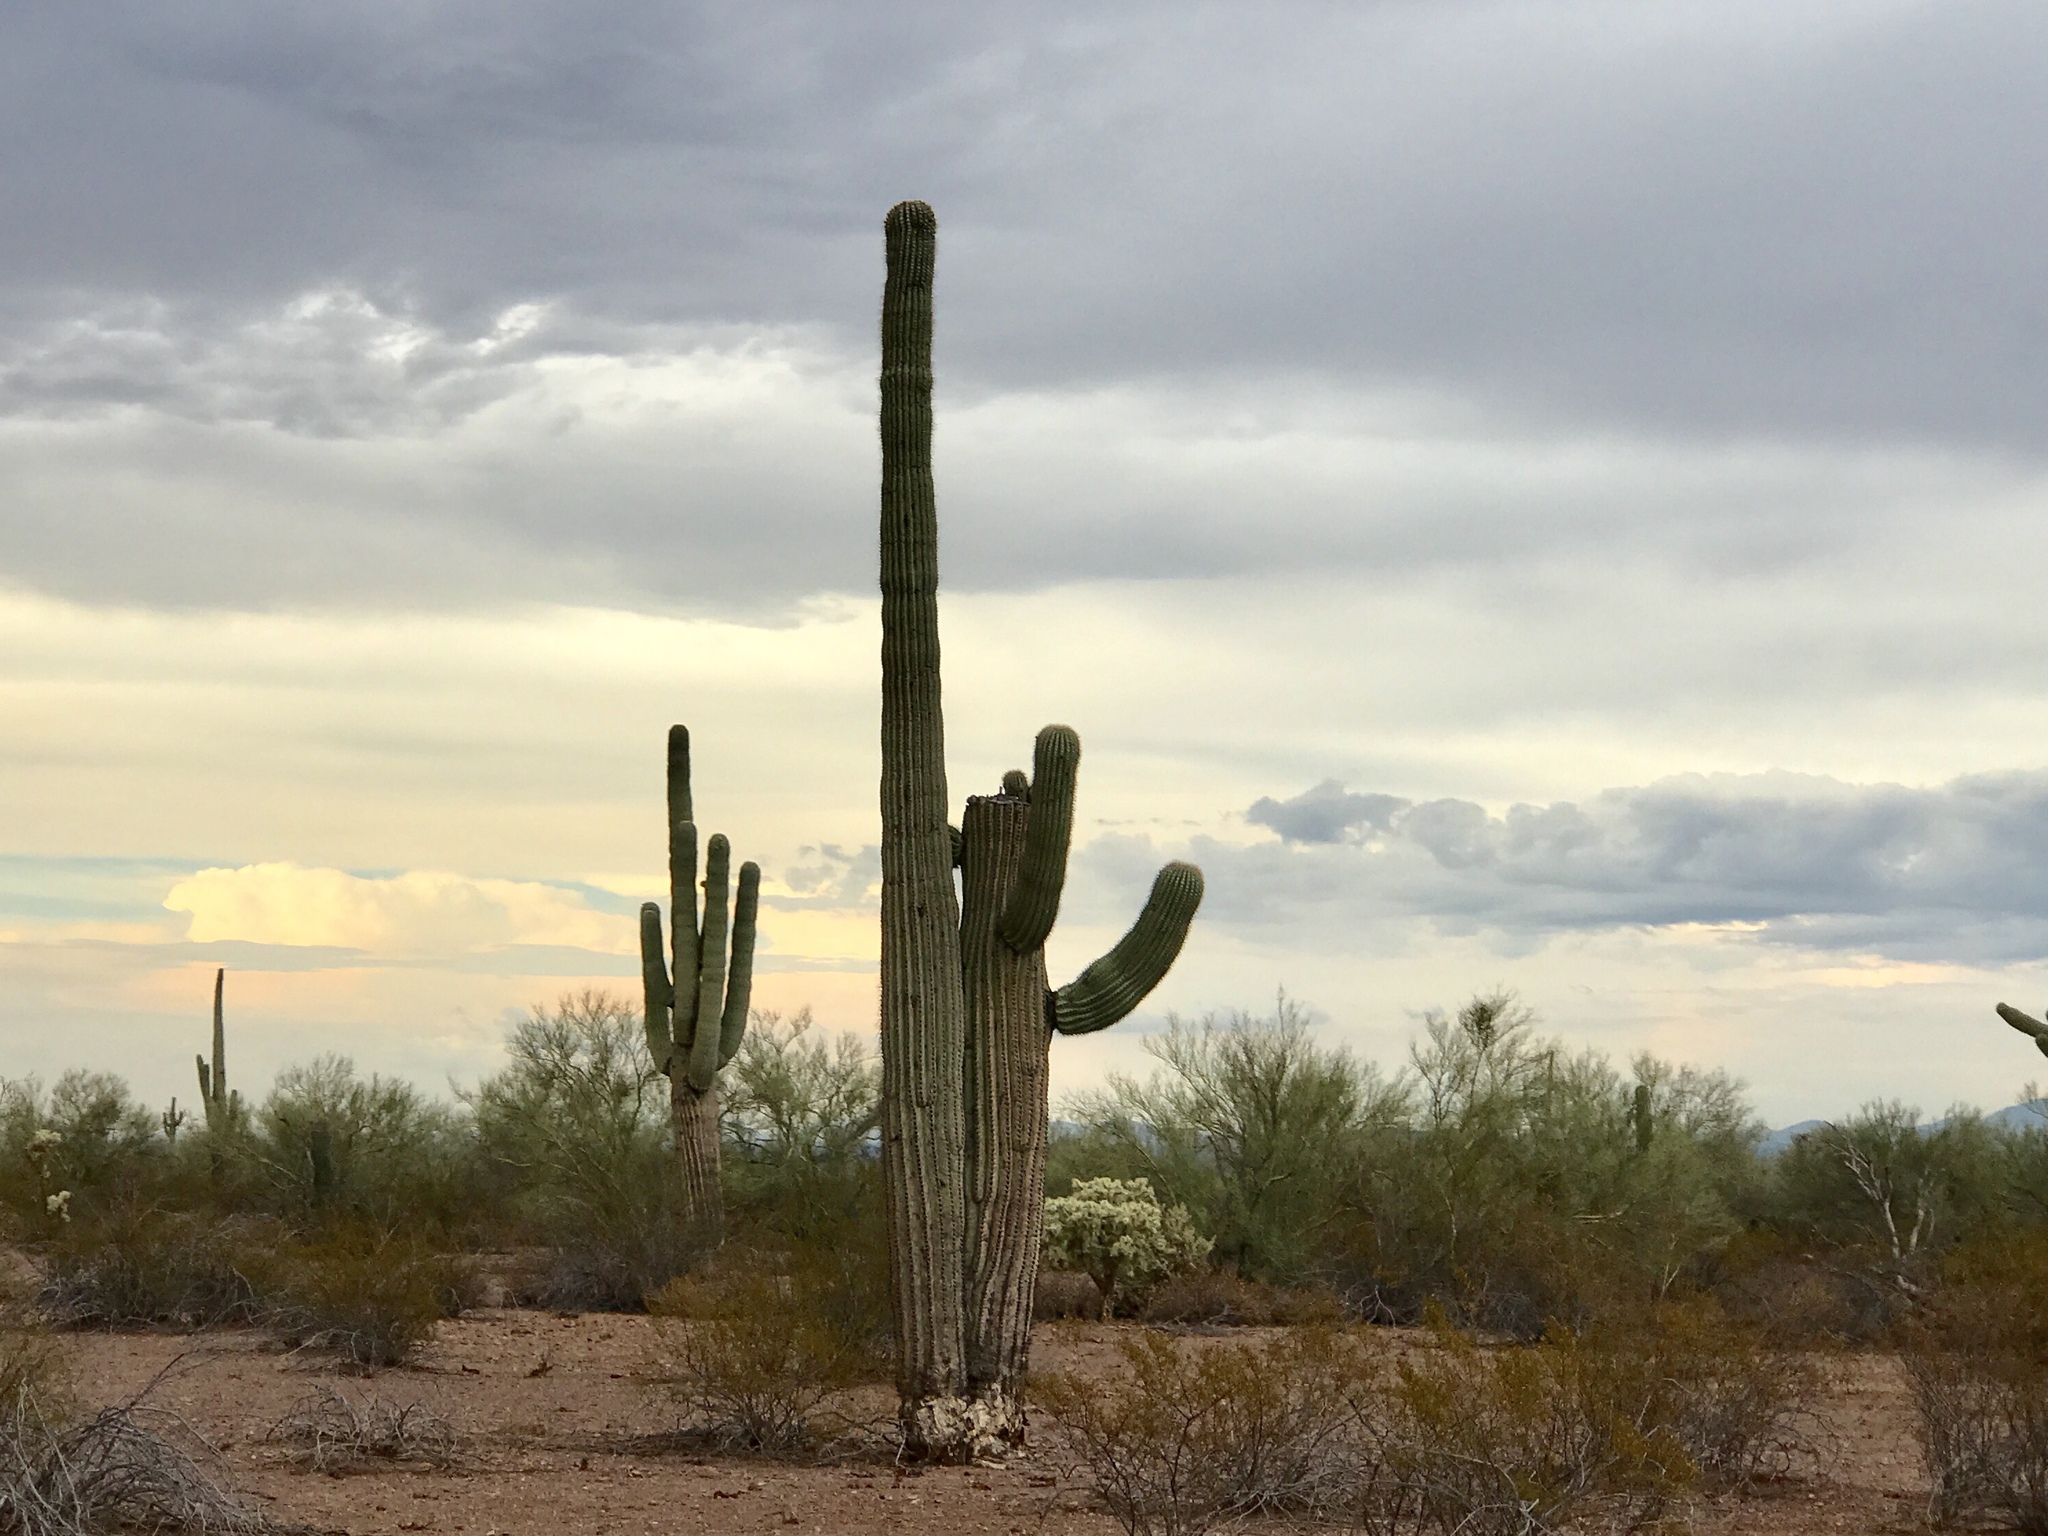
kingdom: Plantae
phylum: Tracheophyta
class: Magnoliopsida
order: Caryophyllales
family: Cactaceae
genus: Carnegiea
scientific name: Carnegiea gigantea
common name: Saguaro
